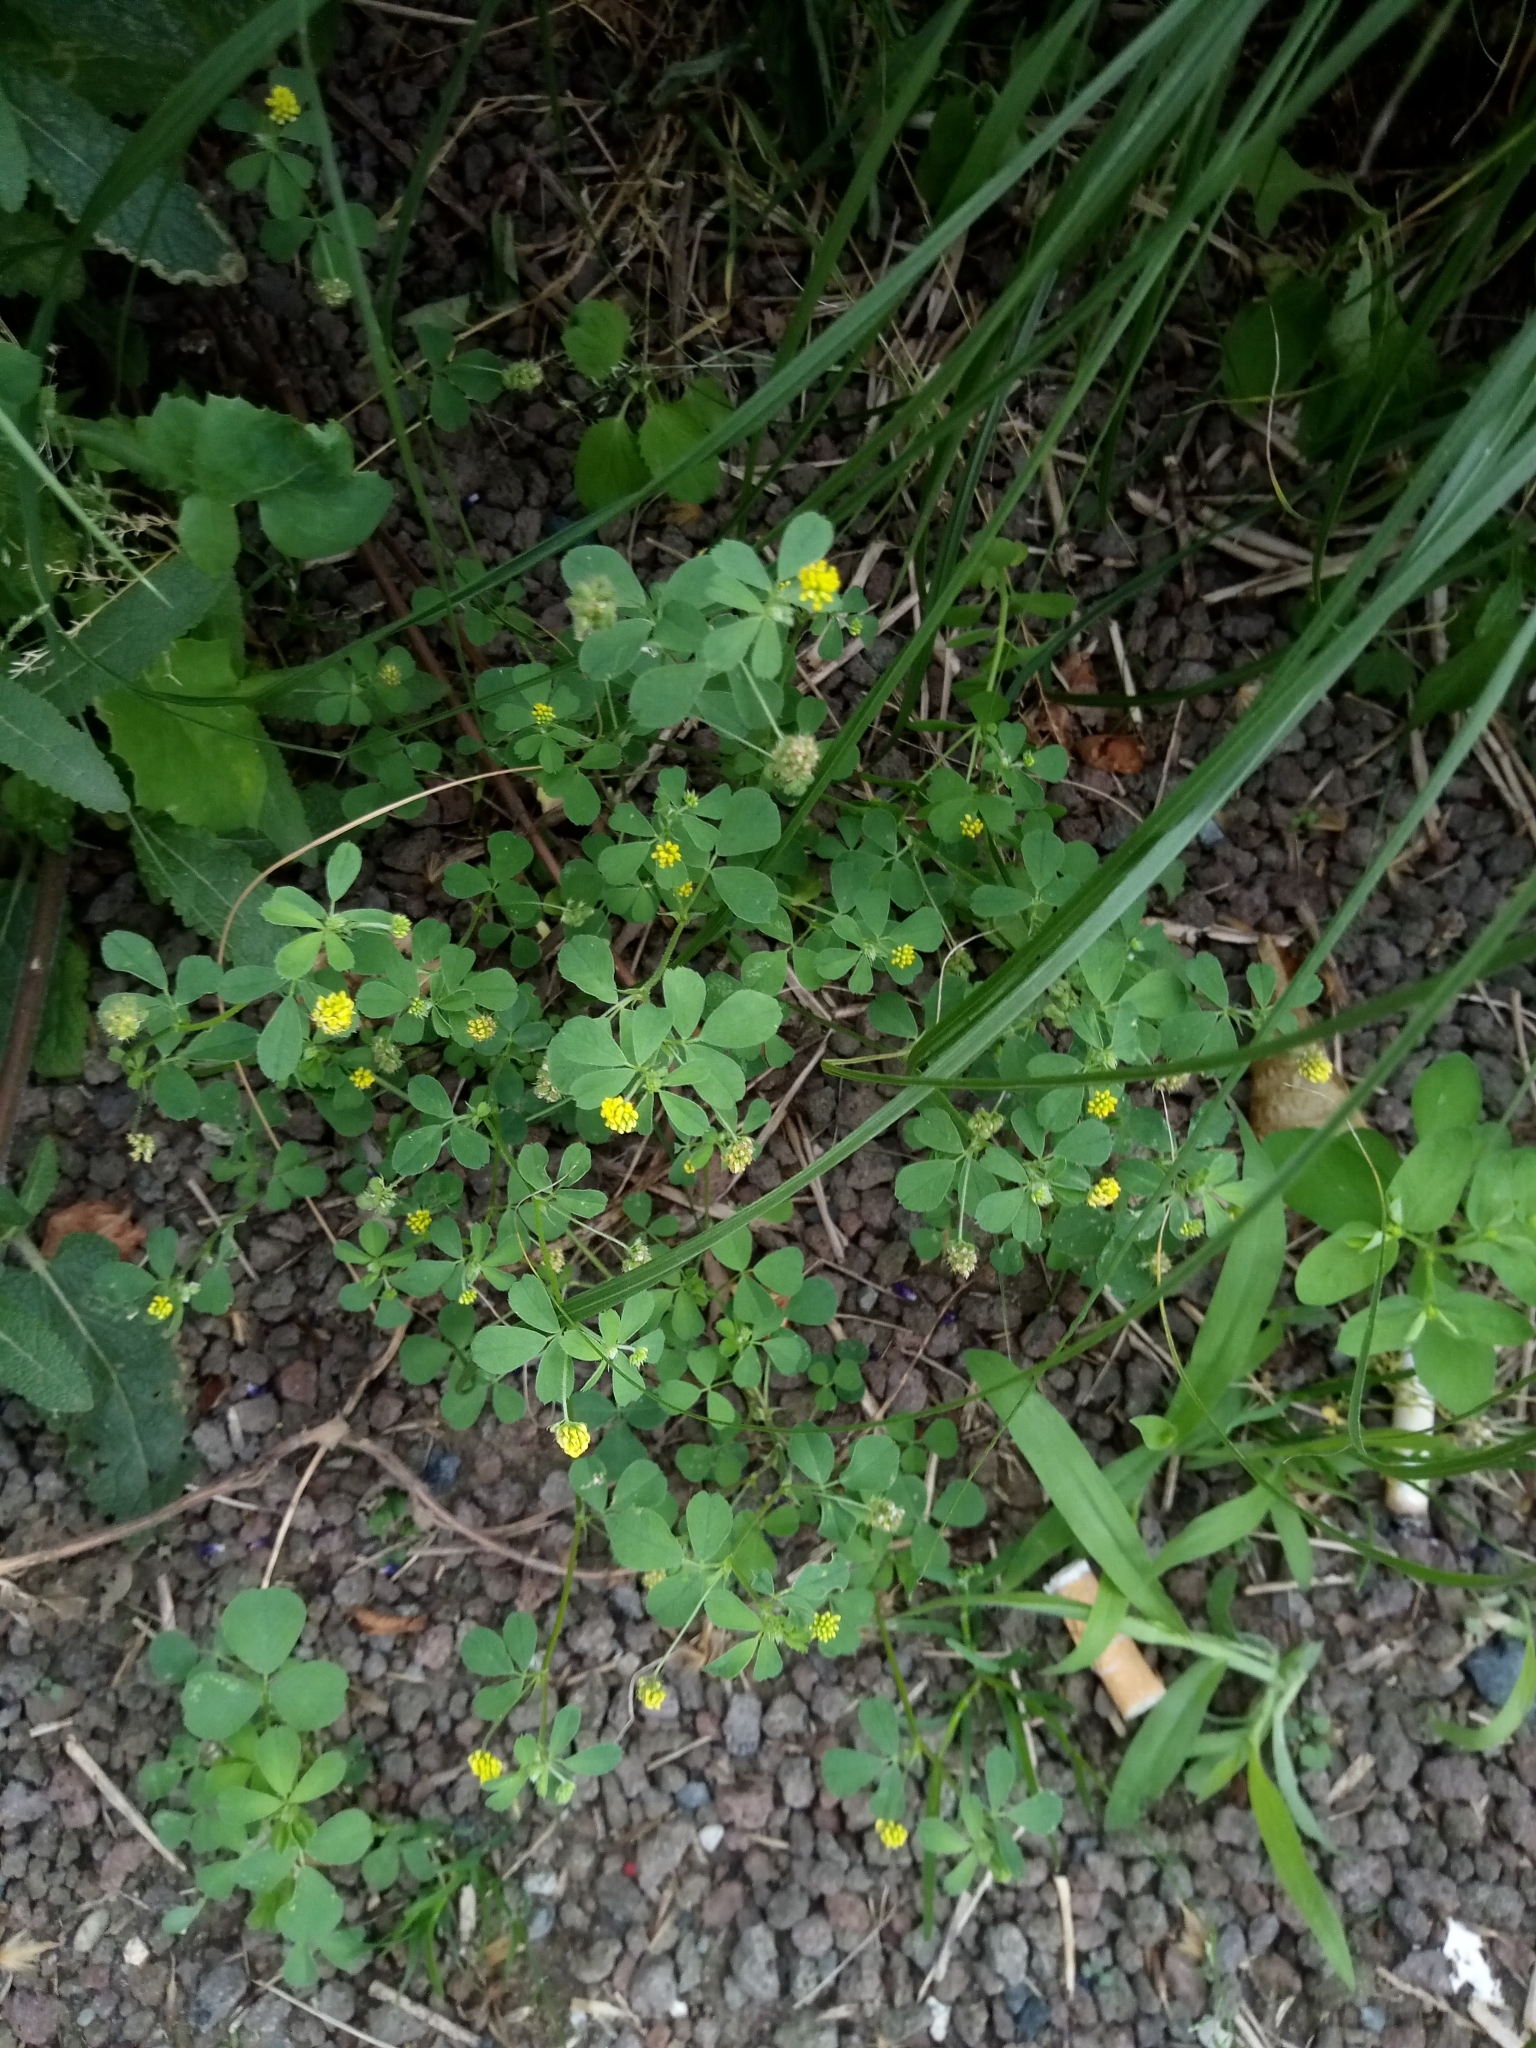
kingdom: Plantae
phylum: Tracheophyta
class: Magnoliopsida
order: Fabales
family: Fabaceae
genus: Medicago
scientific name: Medicago lupulina
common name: Black medick
